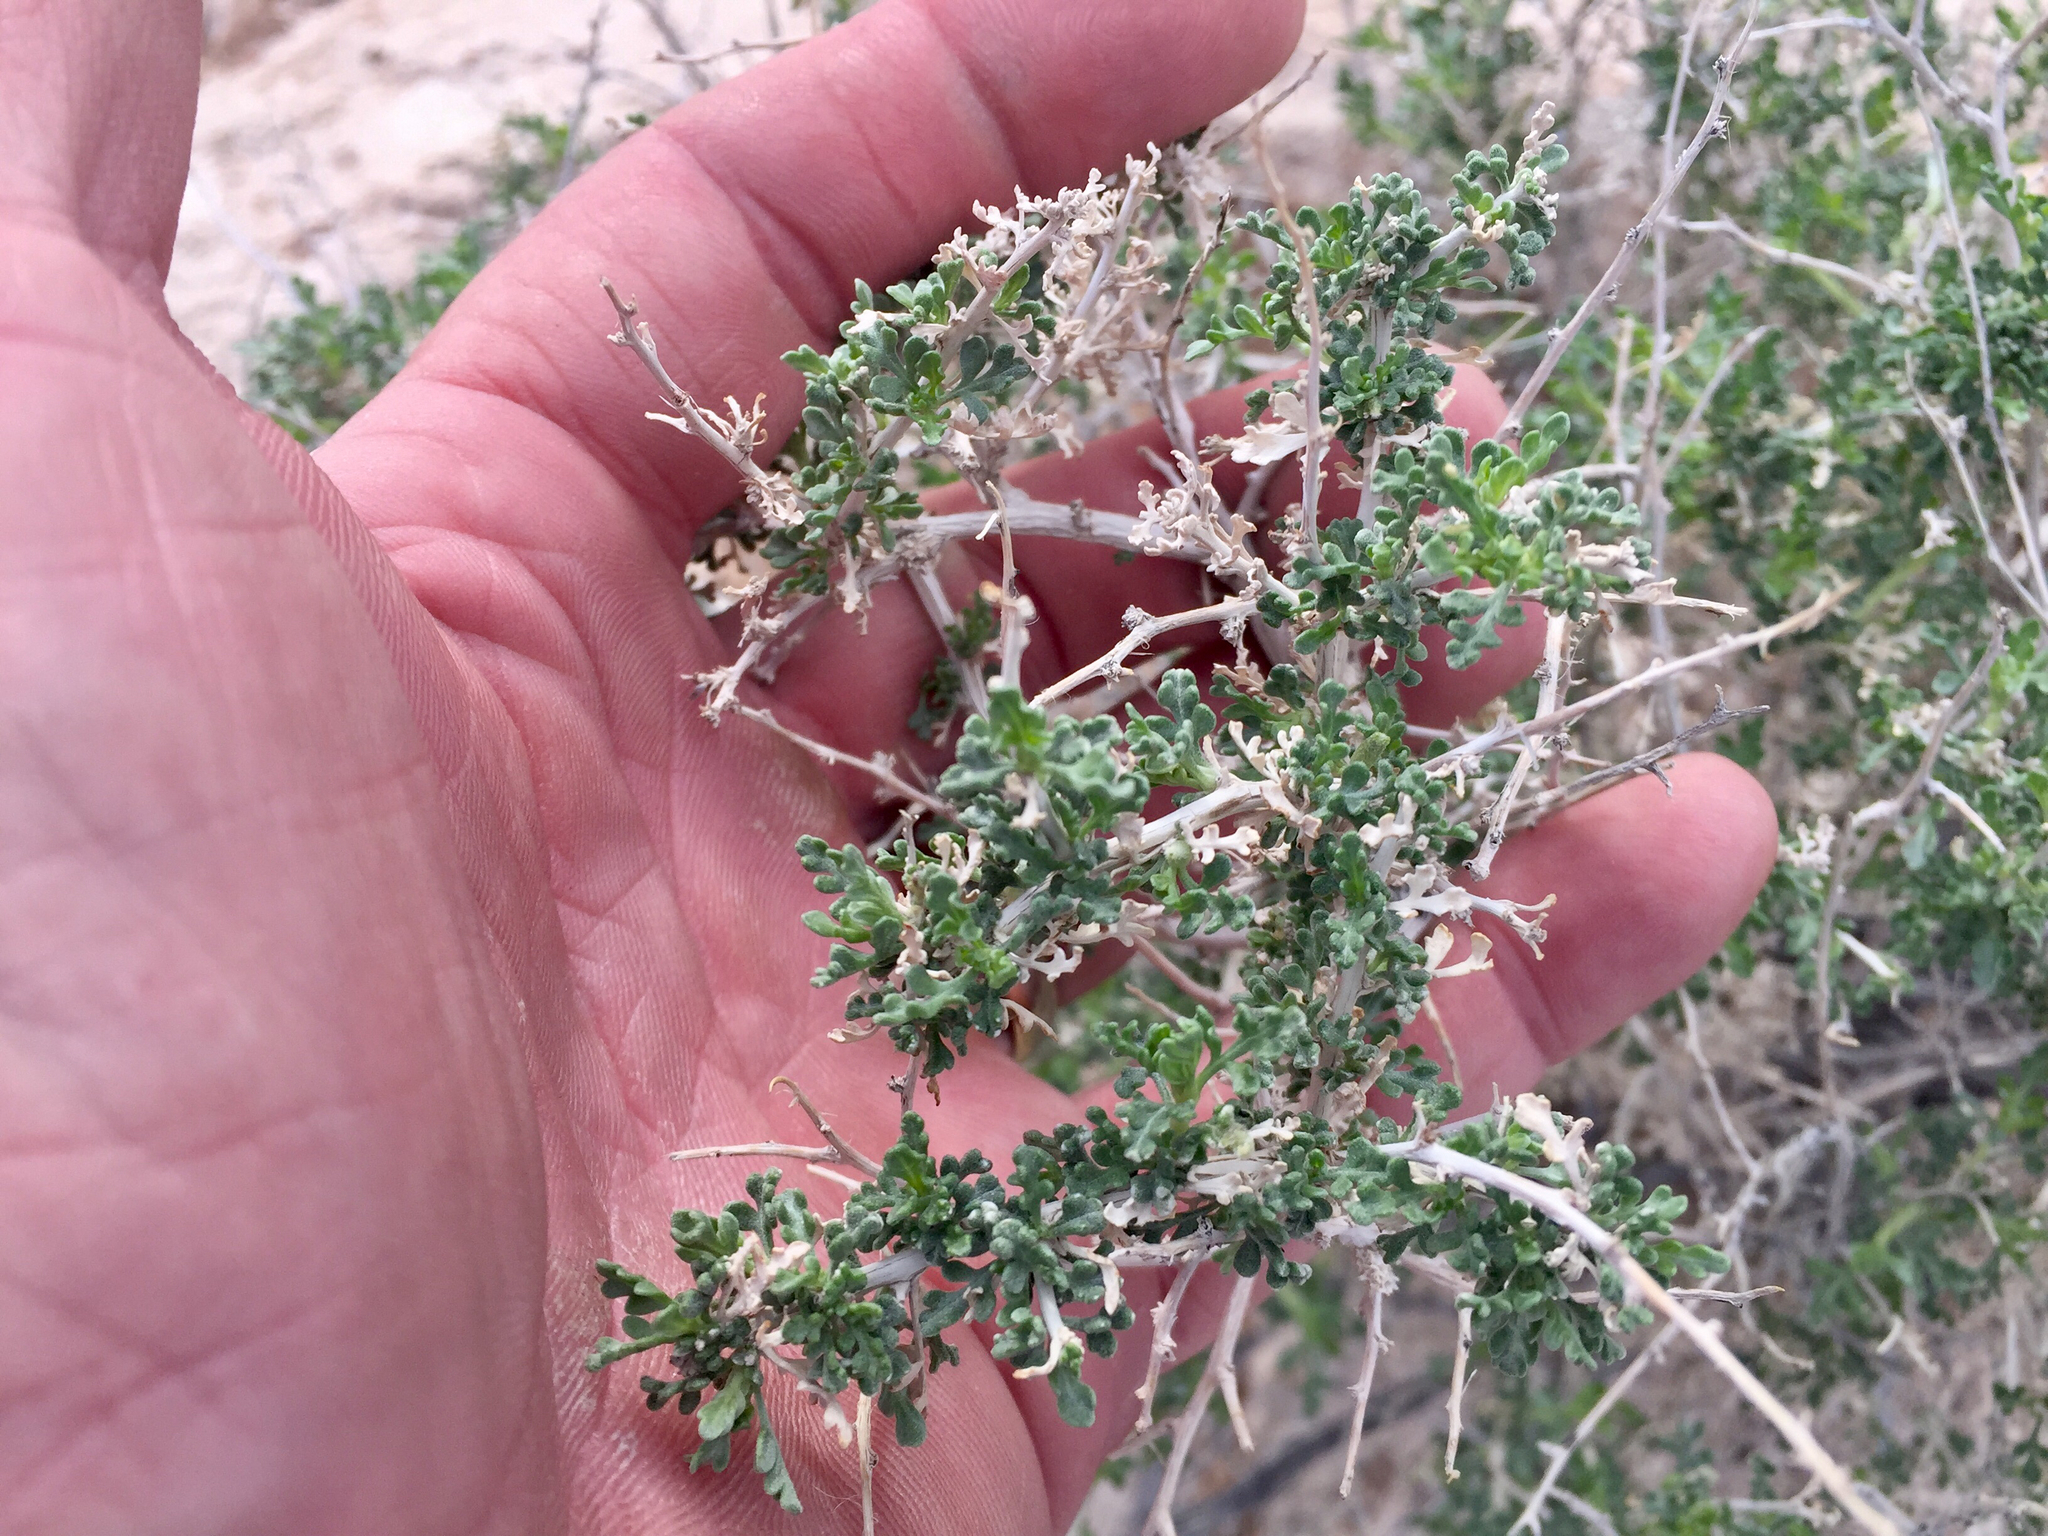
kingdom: Plantae
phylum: Tracheophyta
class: Magnoliopsida
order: Asterales
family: Asteraceae
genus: Ambrosia
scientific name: Ambrosia dumosa
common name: Bur-sage
